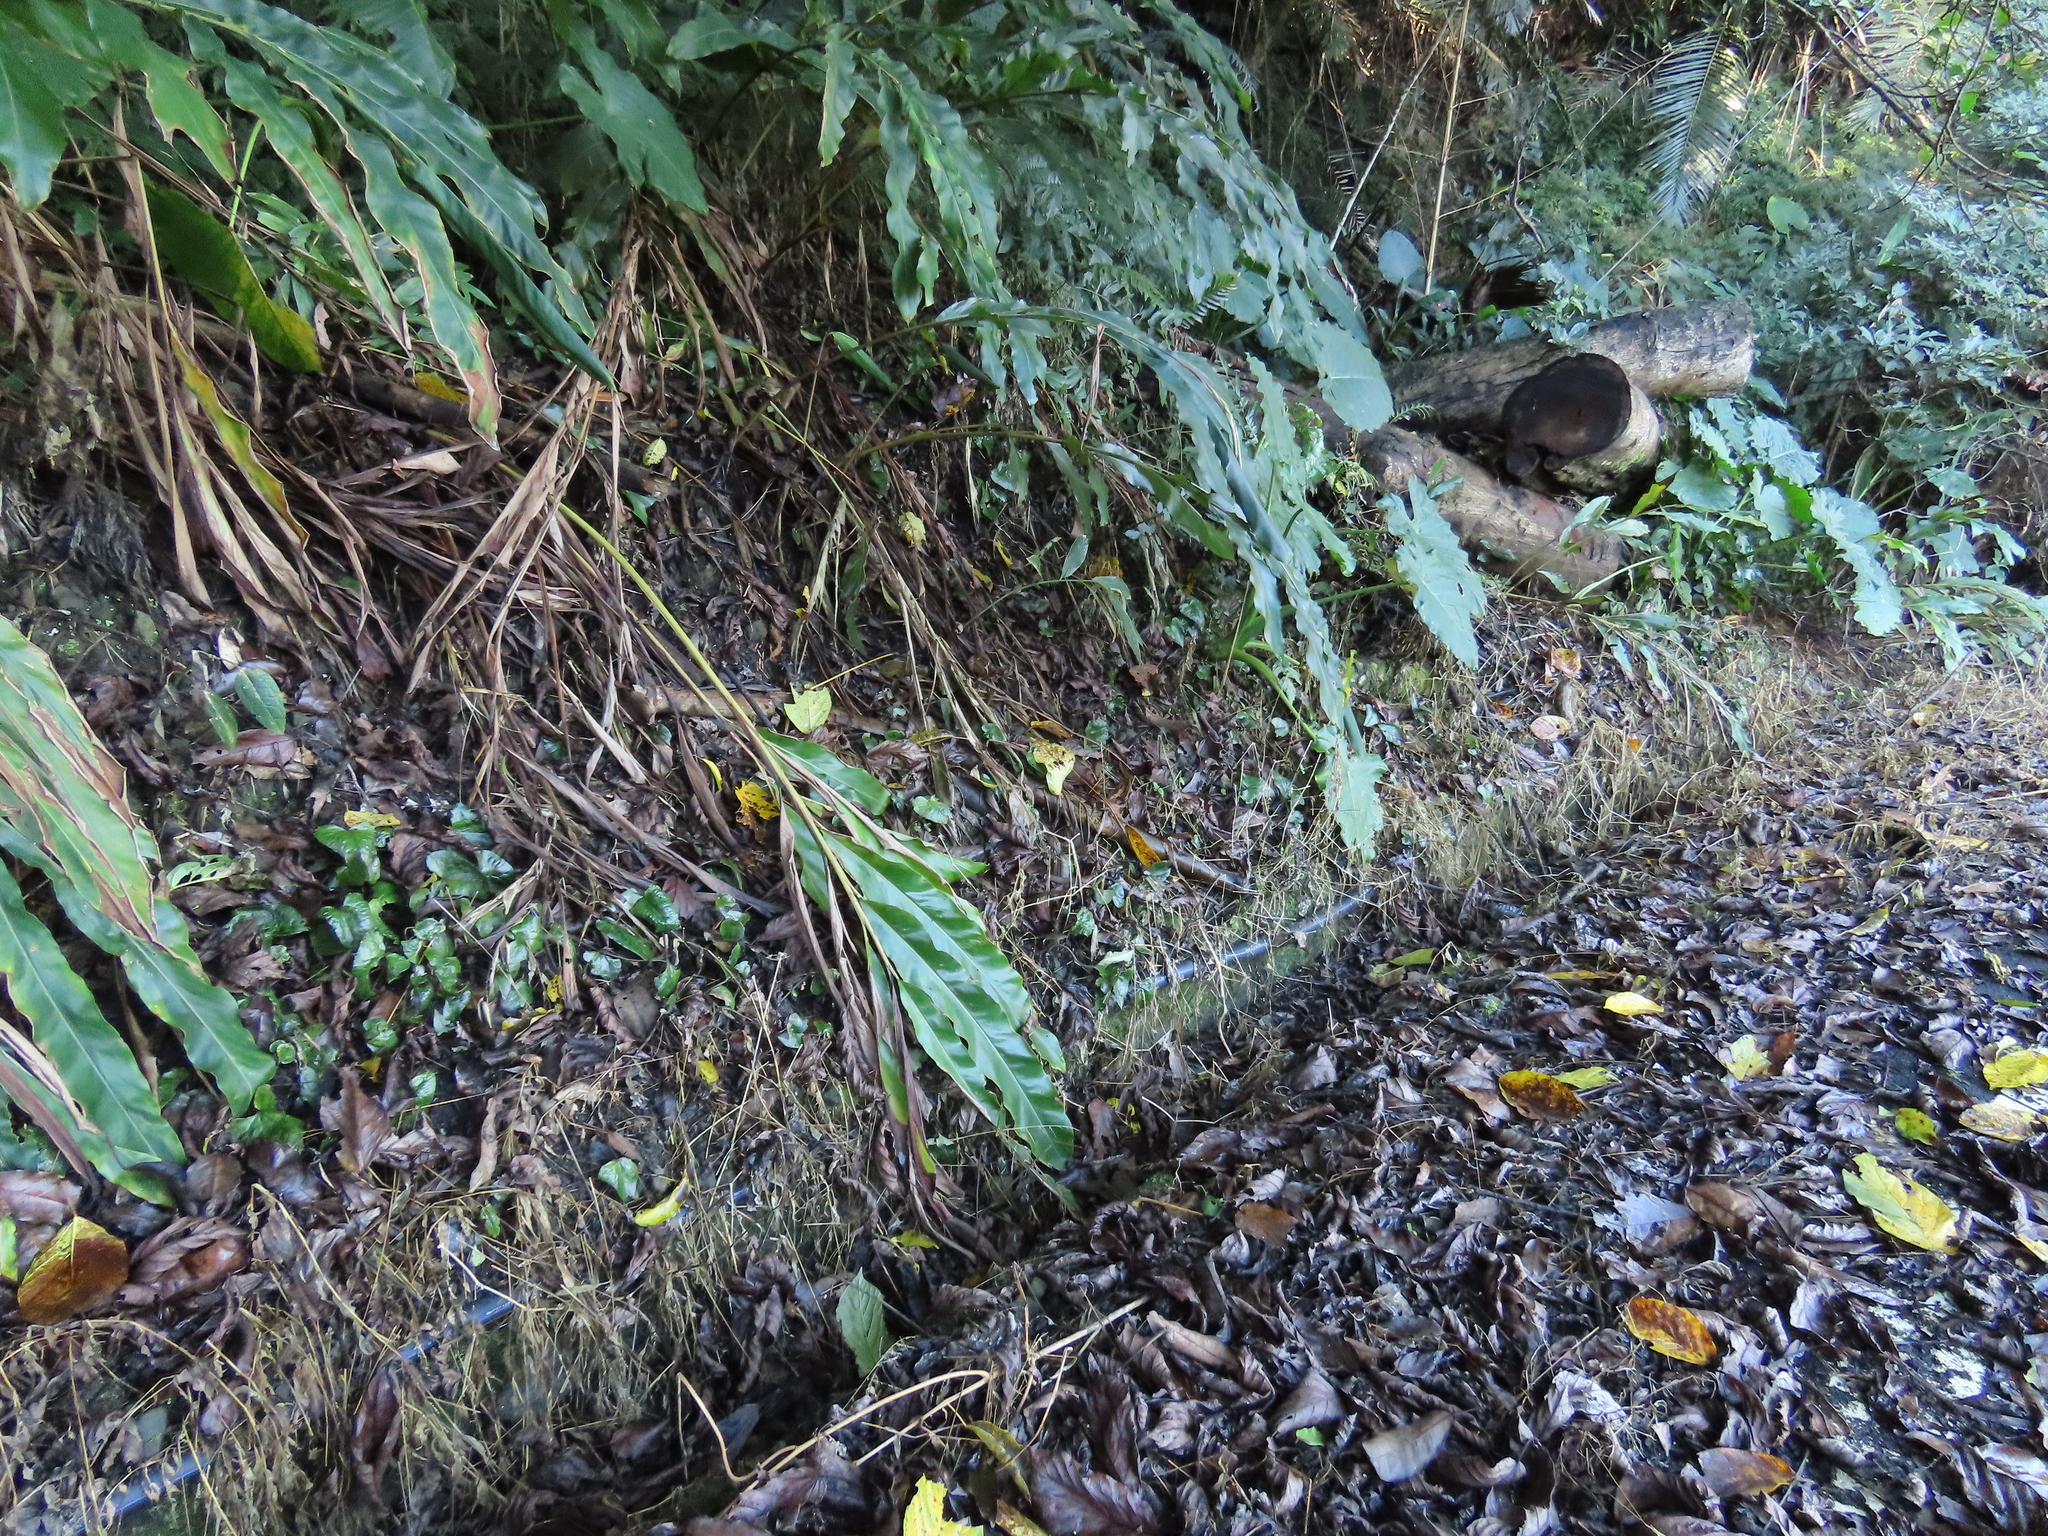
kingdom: Plantae
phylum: Tracheophyta
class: Polypodiopsida
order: Polypodiales
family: Polypodiaceae
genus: Drynaria
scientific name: Drynaria coronans
